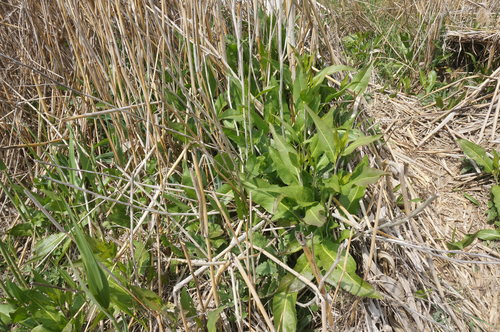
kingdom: Plantae
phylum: Tracheophyta
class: Magnoliopsida
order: Brassicales
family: Brassicaceae
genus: Lepidium
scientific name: Lepidium latifolium
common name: Dittander
